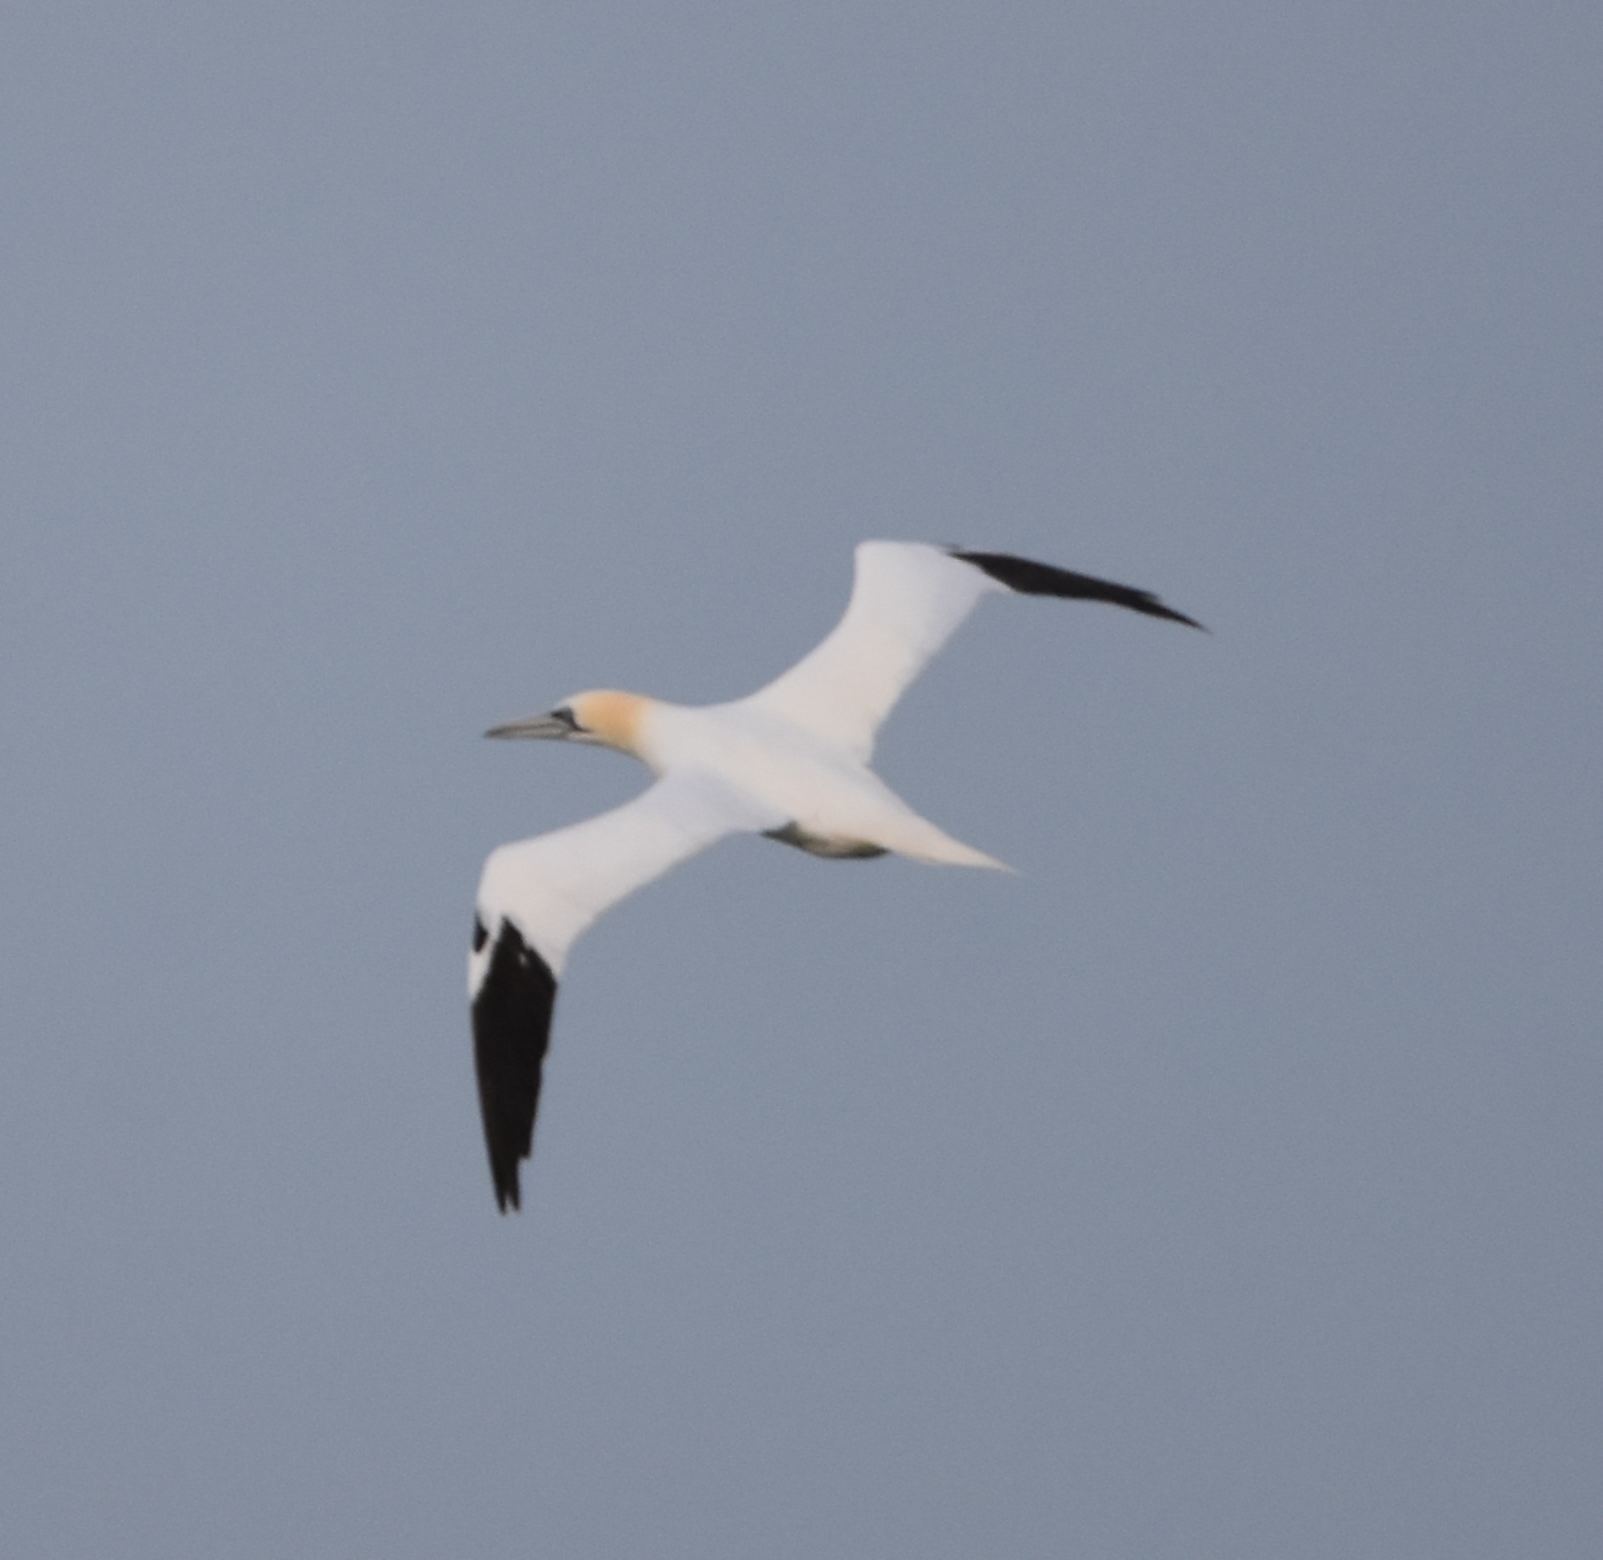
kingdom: Animalia
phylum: Chordata
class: Aves
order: Suliformes
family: Sulidae
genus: Morus
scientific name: Morus bassanus
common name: Northern gannet
